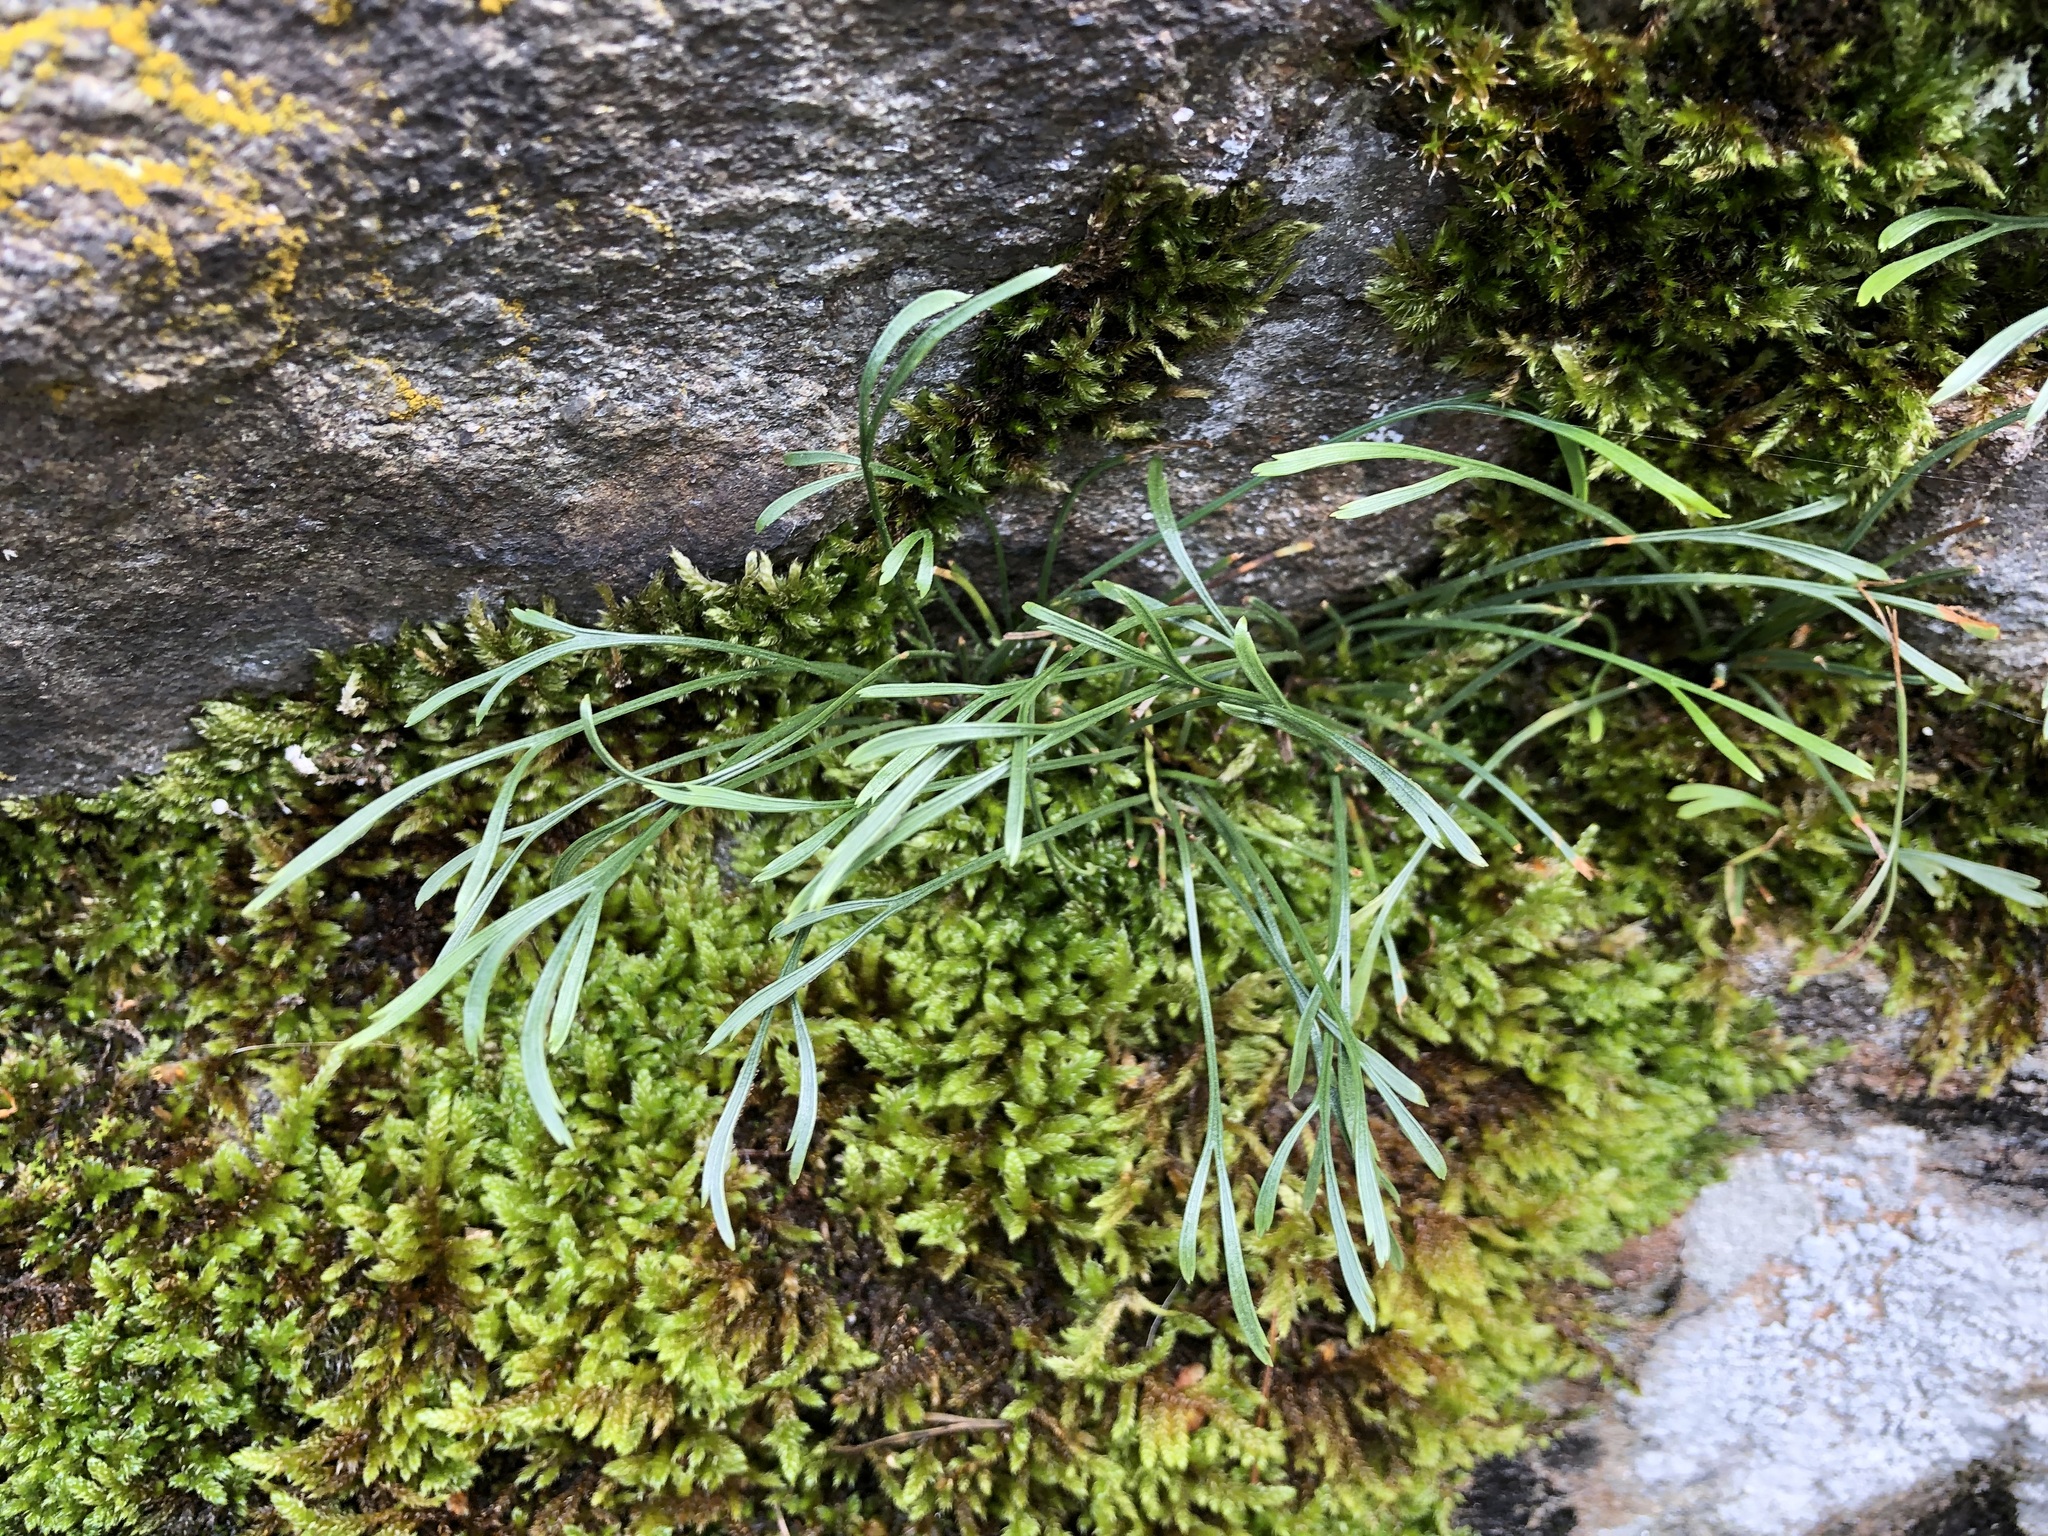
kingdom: Plantae
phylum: Tracheophyta
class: Polypodiopsida
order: Polypodiales
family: Aspleniaceae
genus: Asplenium
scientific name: Asplenium septentrionale
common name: Forked spleenwort
